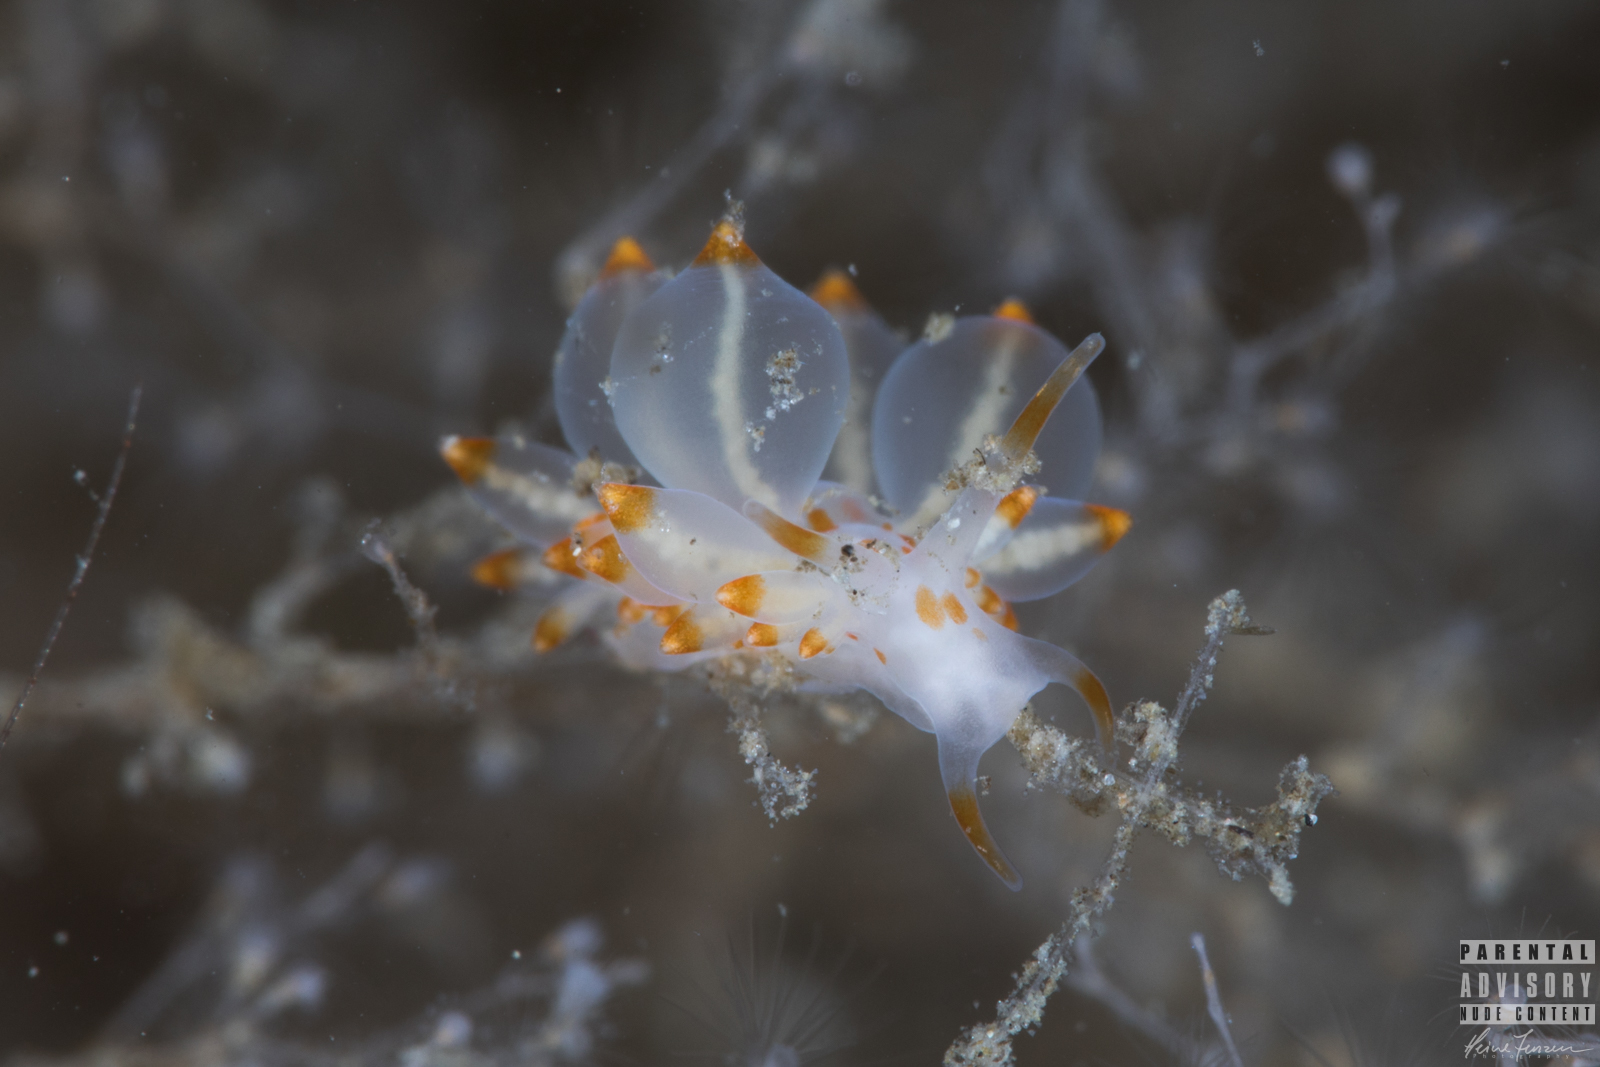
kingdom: Animalia
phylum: Mollusca
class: Gastropoda
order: Nudibranchia
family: Eubranchidae
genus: Amphorina
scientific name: Amphorina farrani
